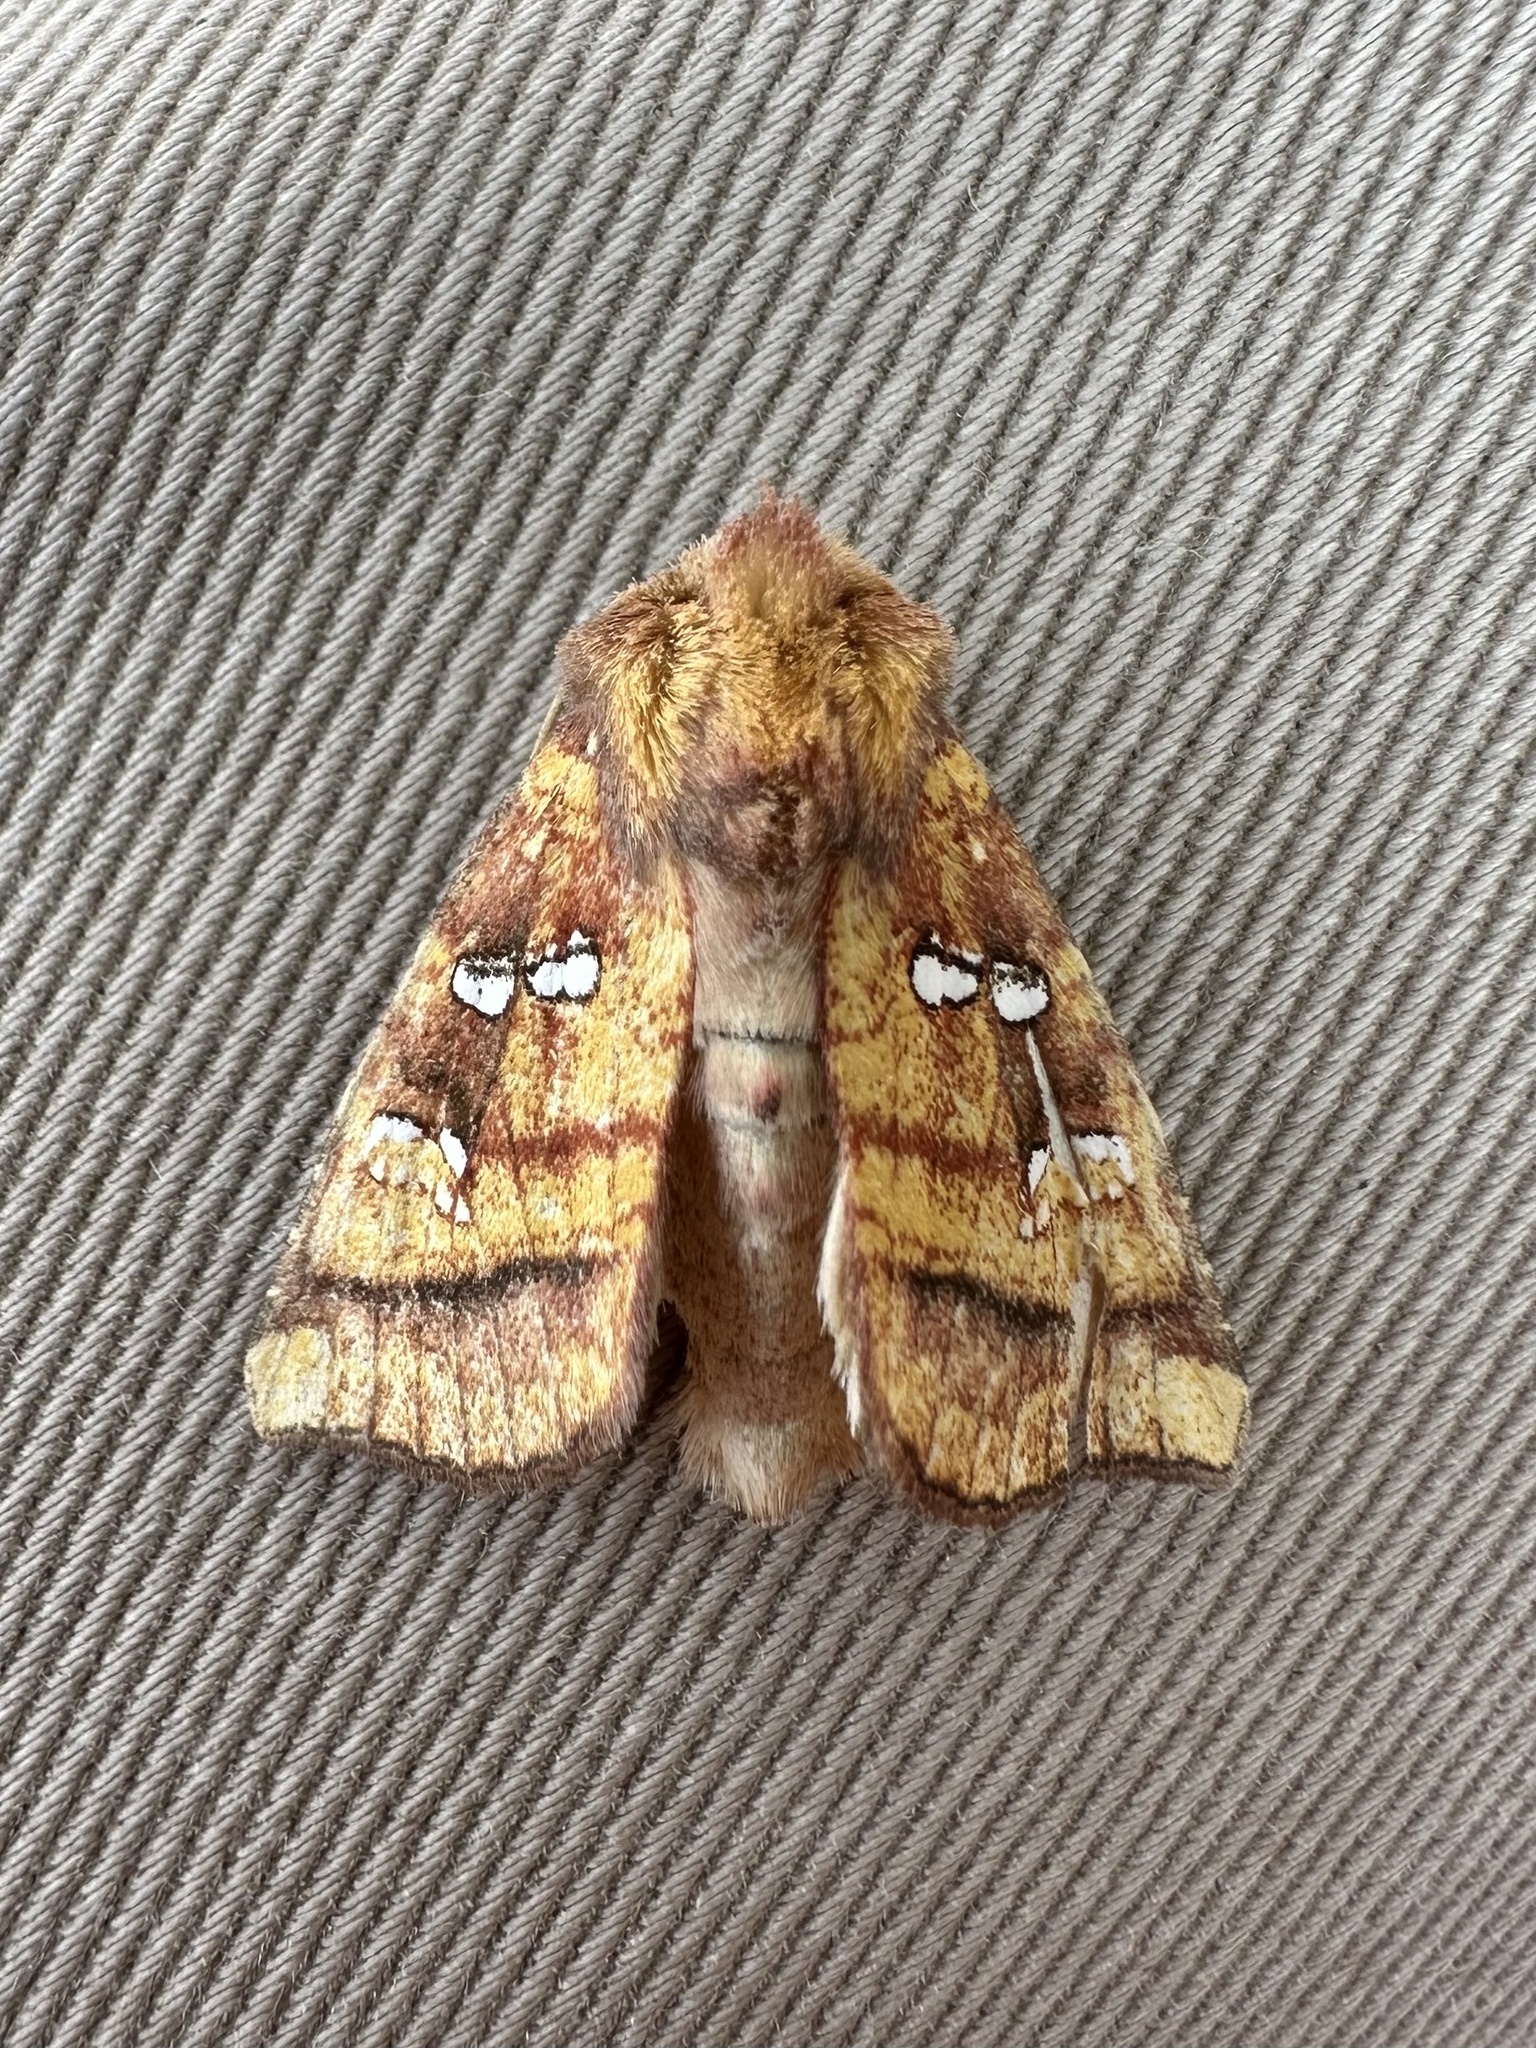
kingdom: Animalia
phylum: Arthropoda
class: Insecta
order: Lepidoptera
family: Noctuidae
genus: Papaipema
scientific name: Papaipema pterisii
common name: Bracken borer moth
